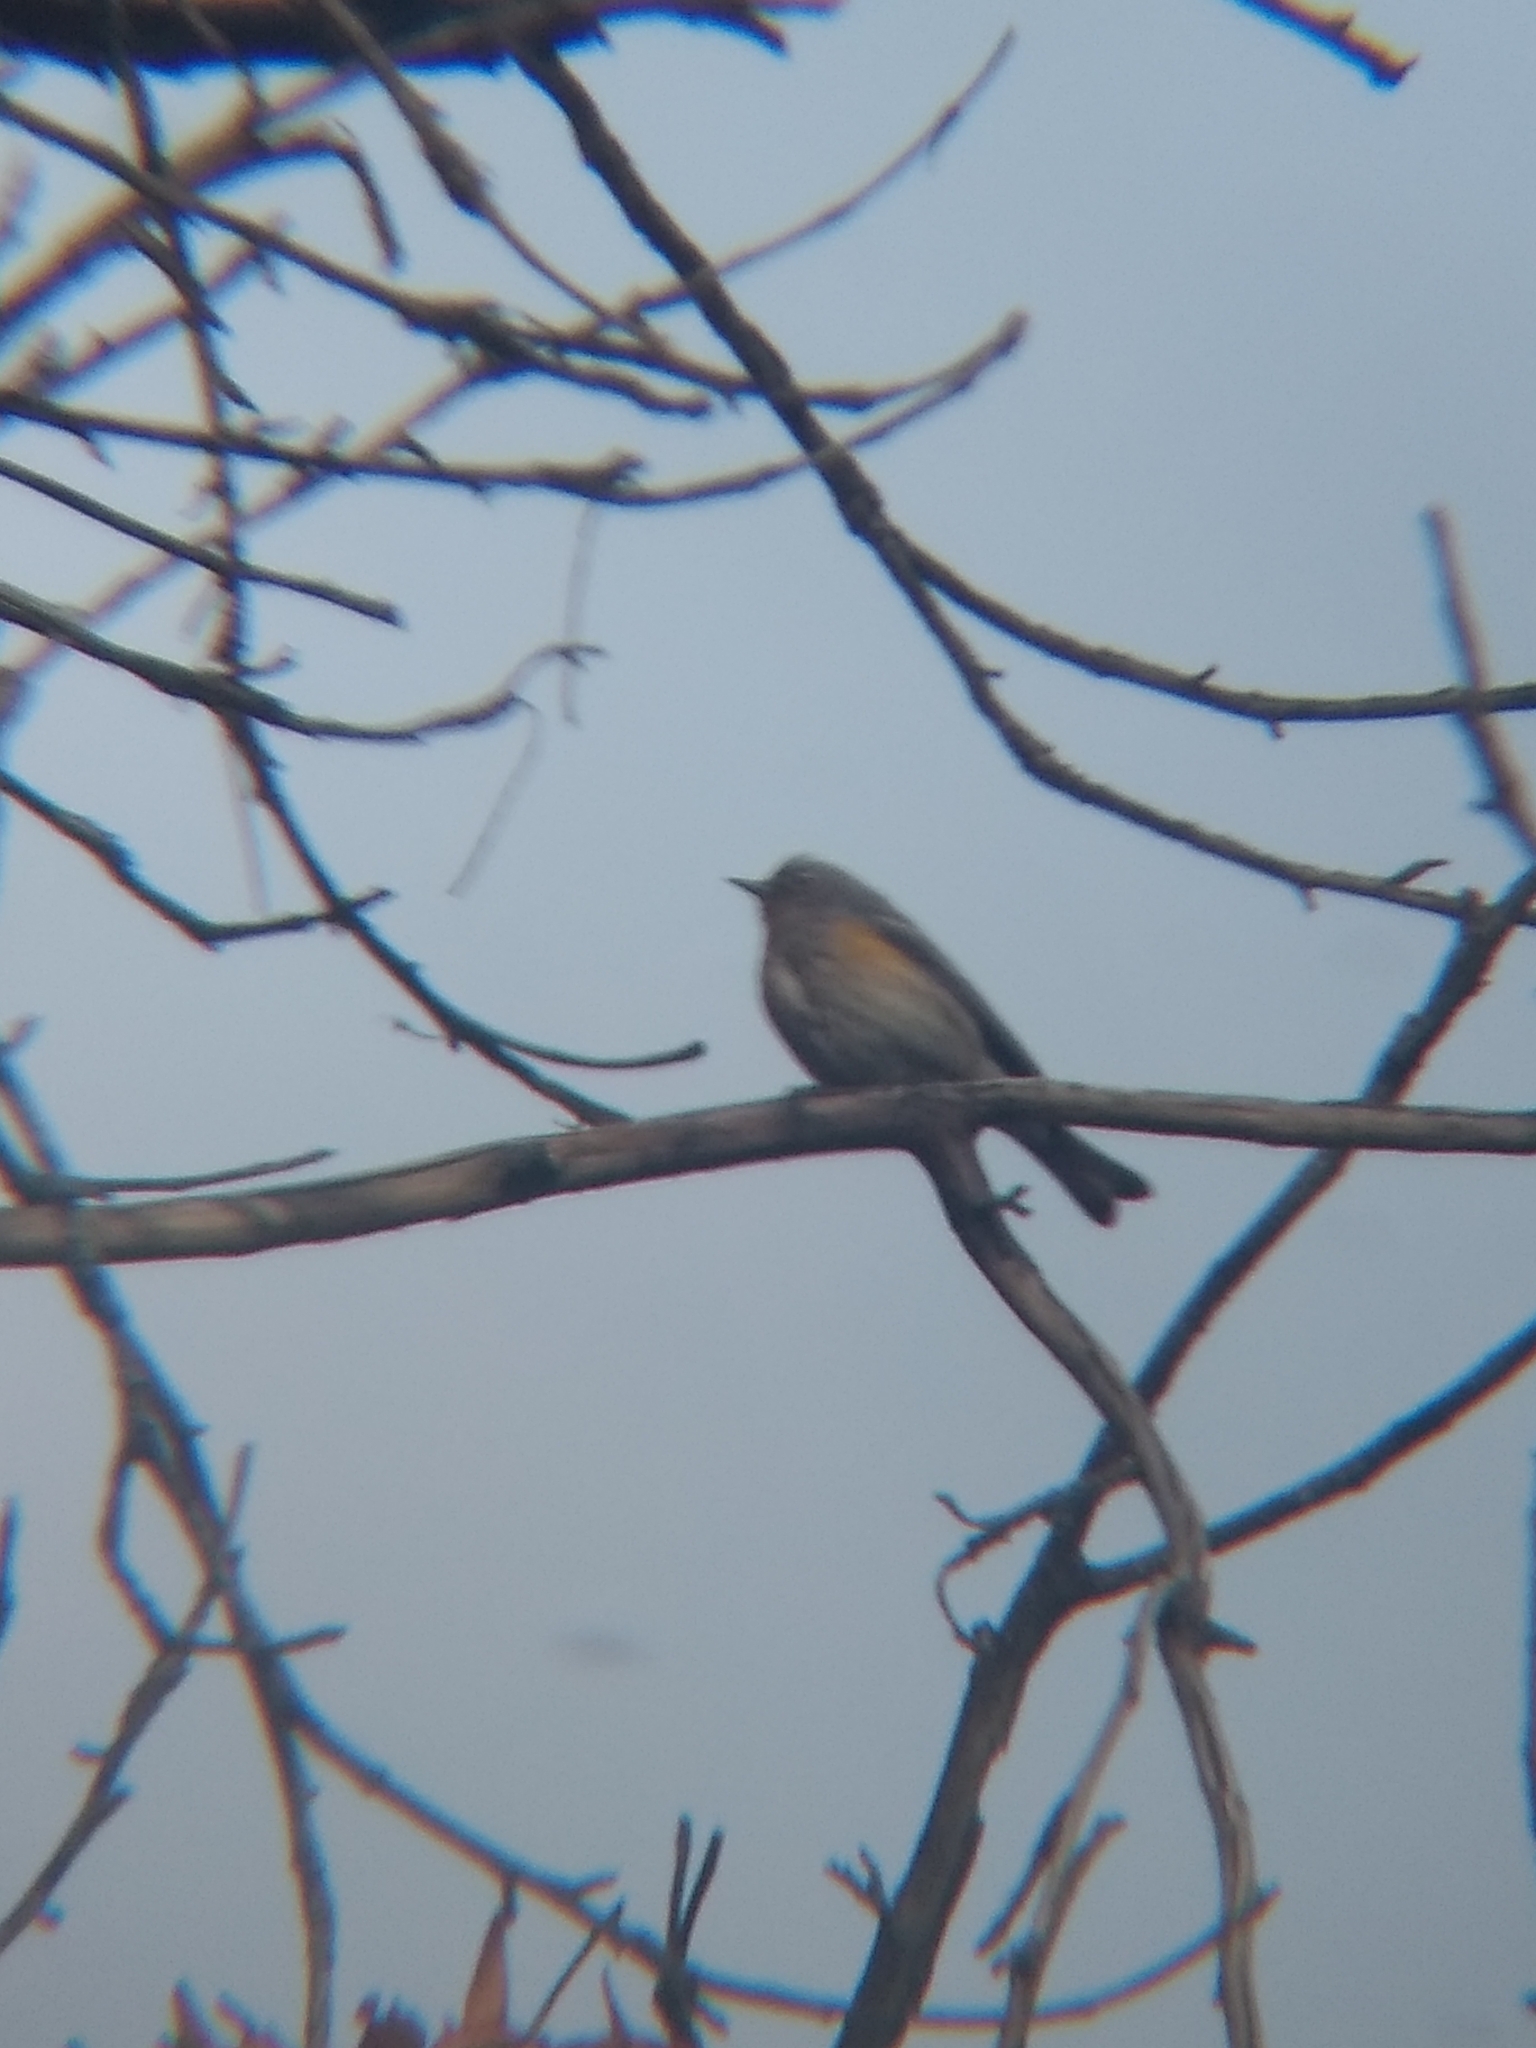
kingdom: Animalia
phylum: Chordata
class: Aves
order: Passeriformes
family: Parulidae
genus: Setophaga
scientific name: Setophaga coronata
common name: Myrtle warbler
